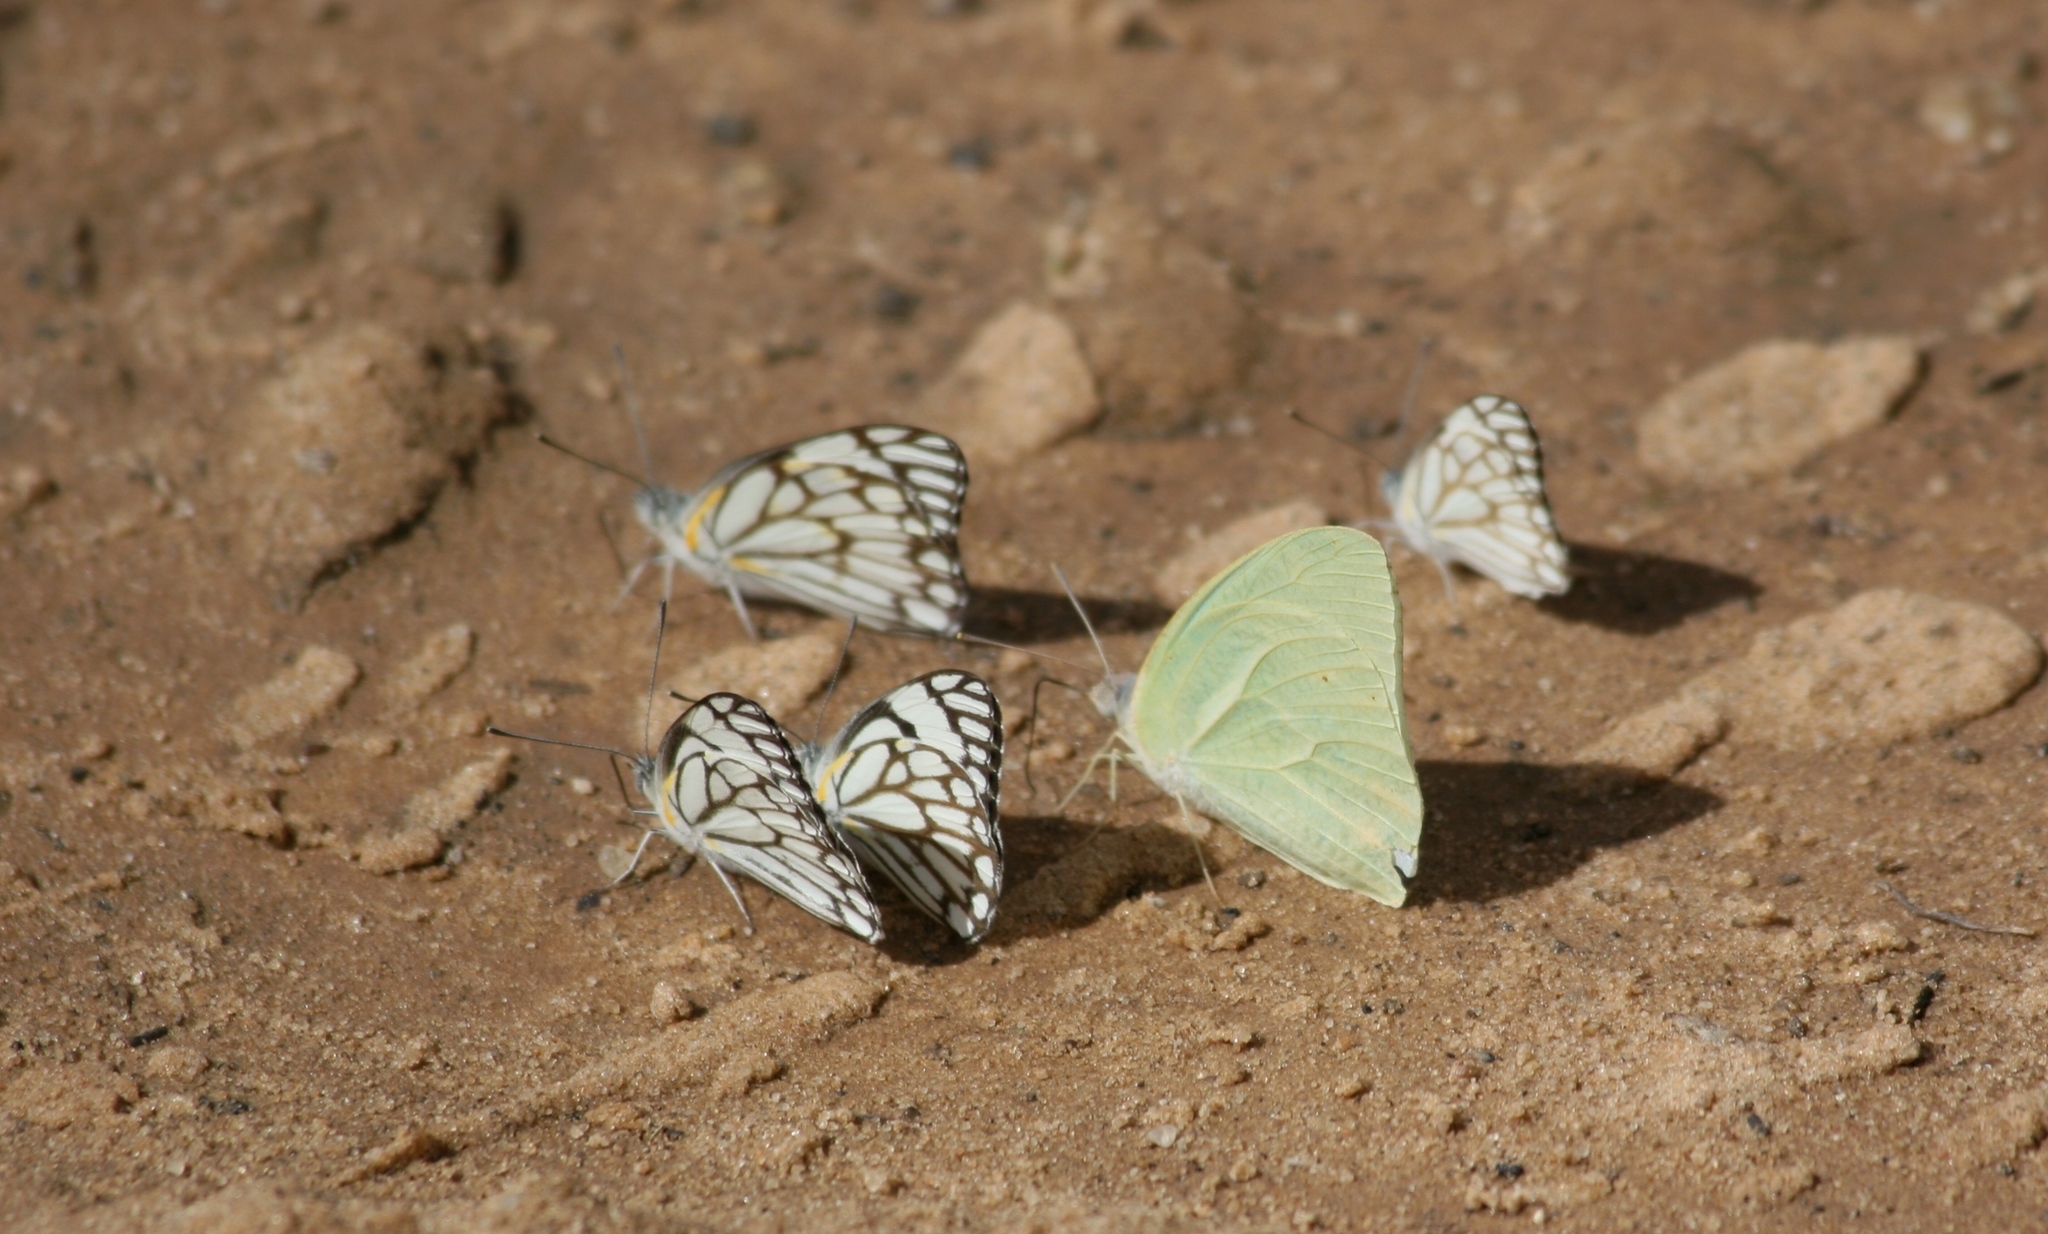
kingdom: Animalia
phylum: Arthropoda
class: Insecta
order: Lepidoptera
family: Pieridae
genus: Belenois
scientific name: Belenois aurota
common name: Brown-veined white
